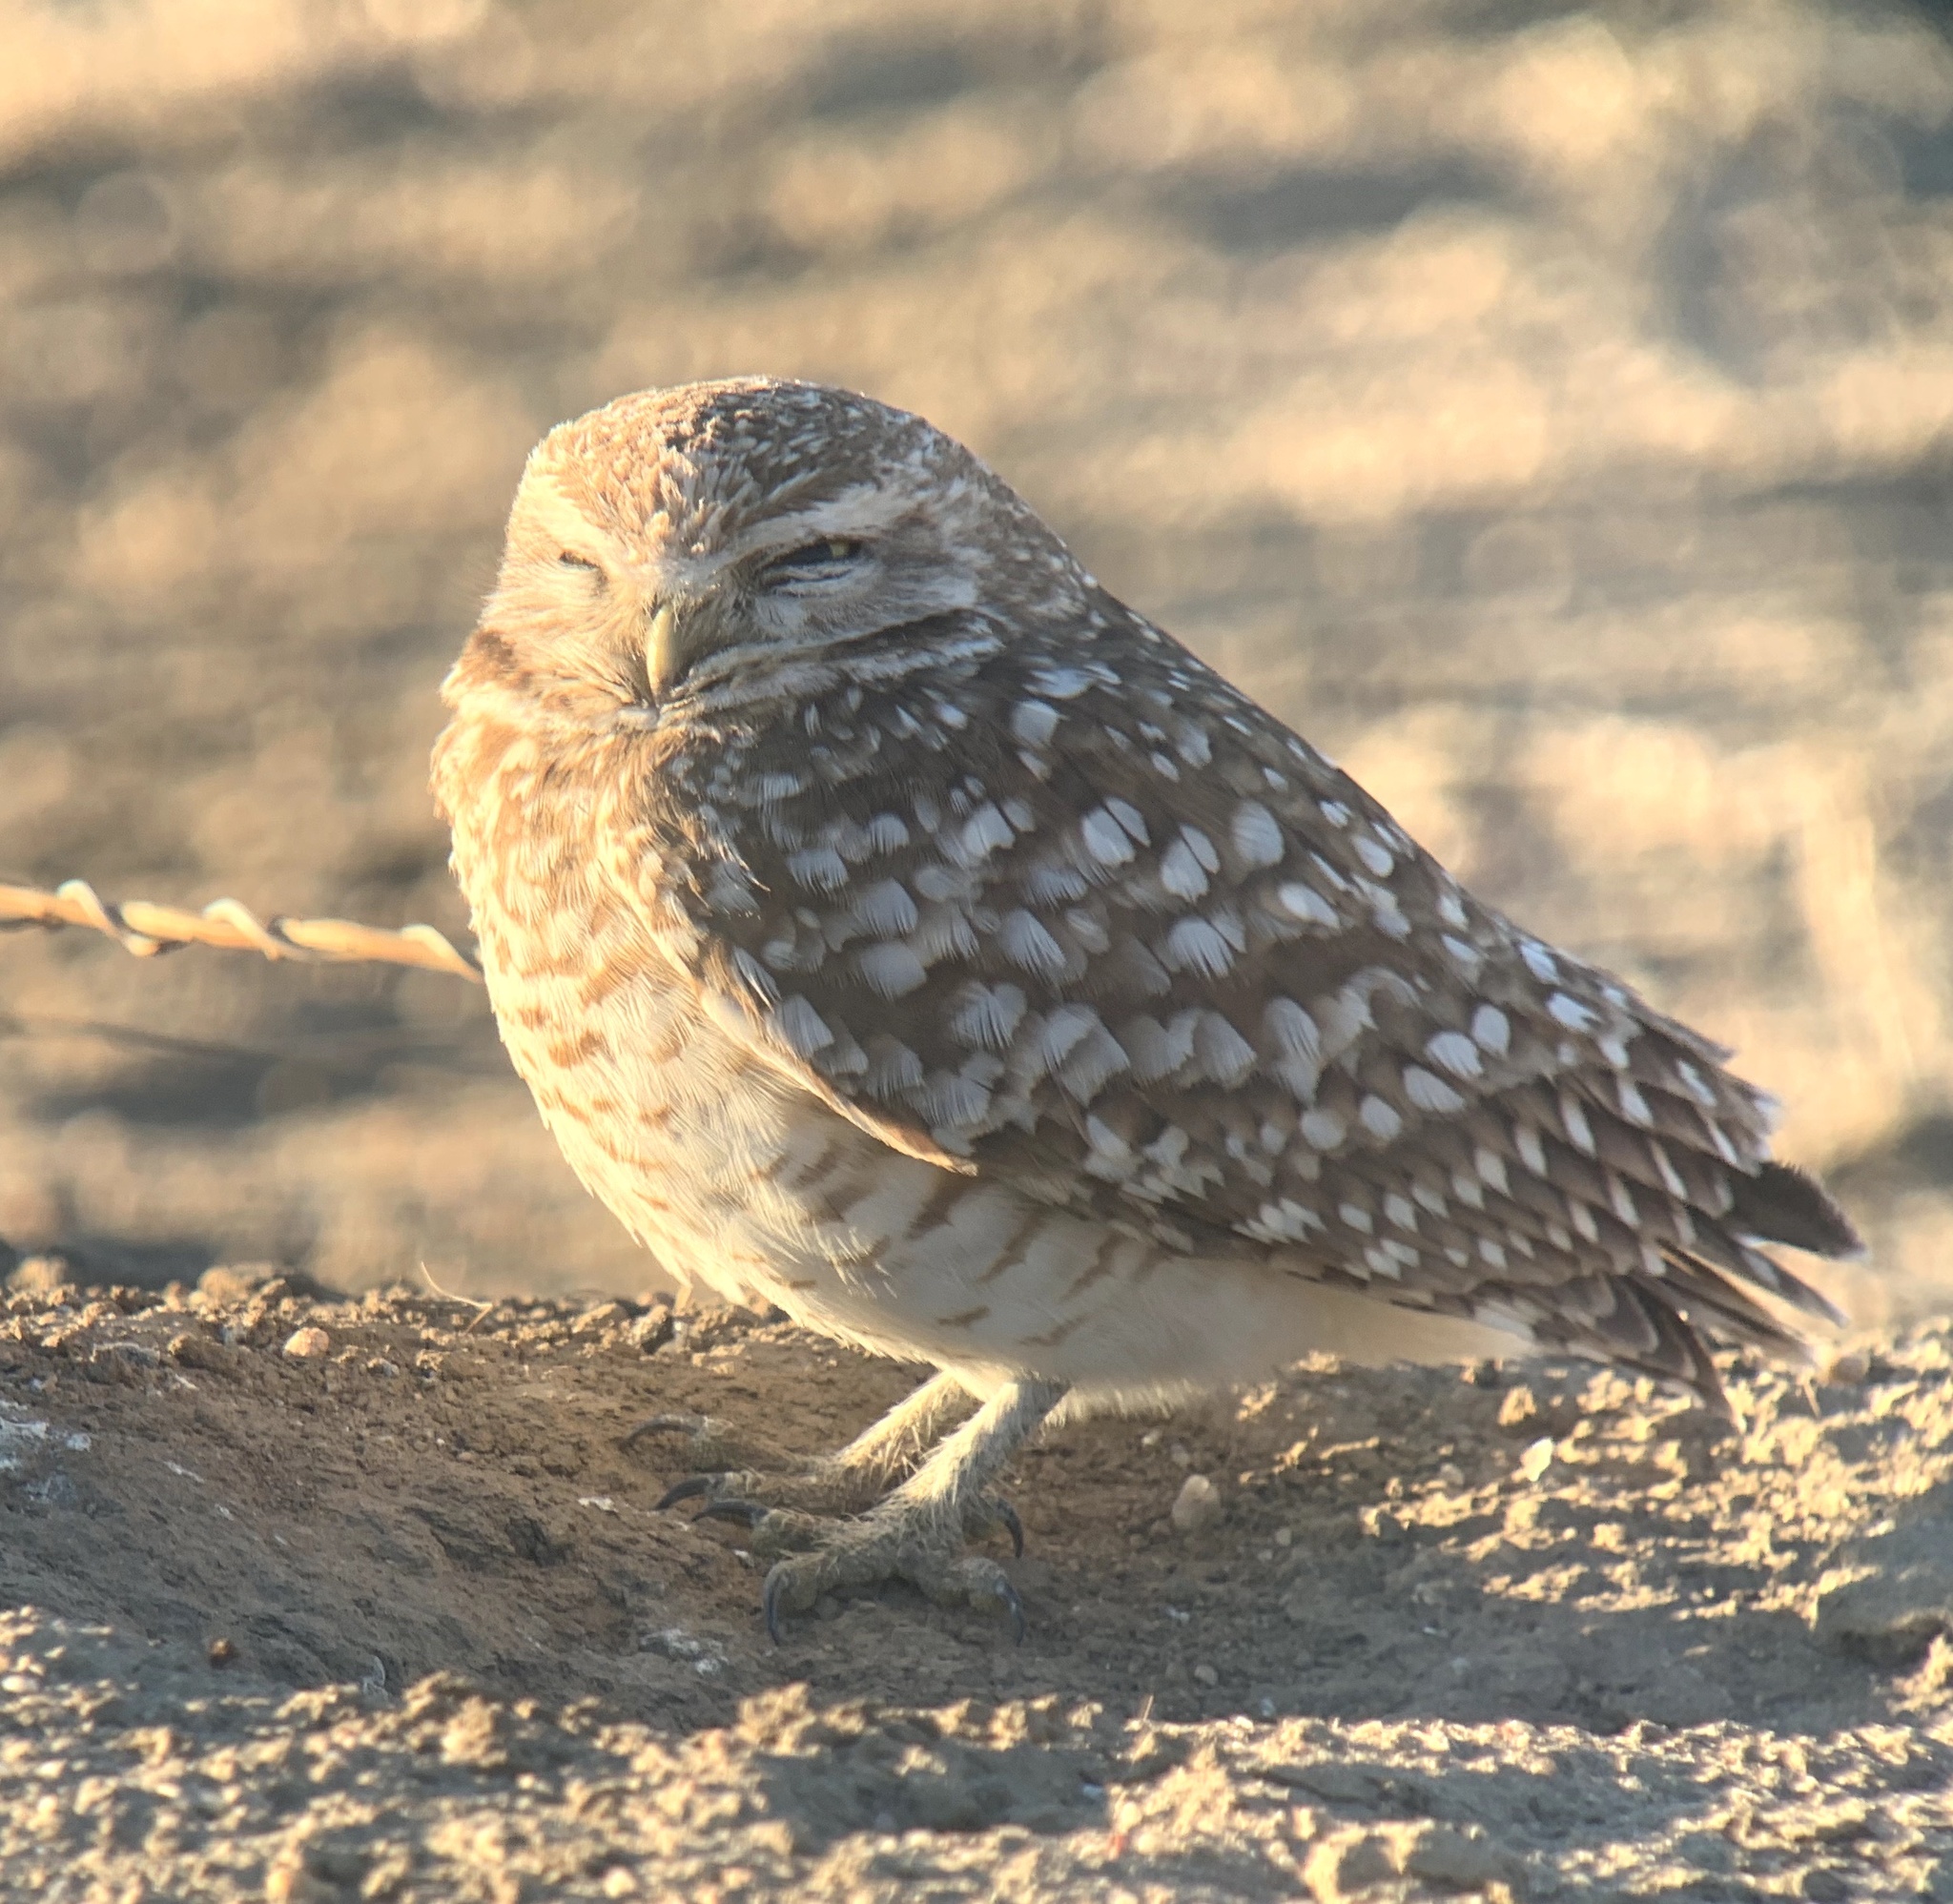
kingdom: Animalia
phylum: Chordata
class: Aves
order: Strigiformes
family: Strigidae
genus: Athene
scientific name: Athene cunicularia
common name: Burrowing owl
